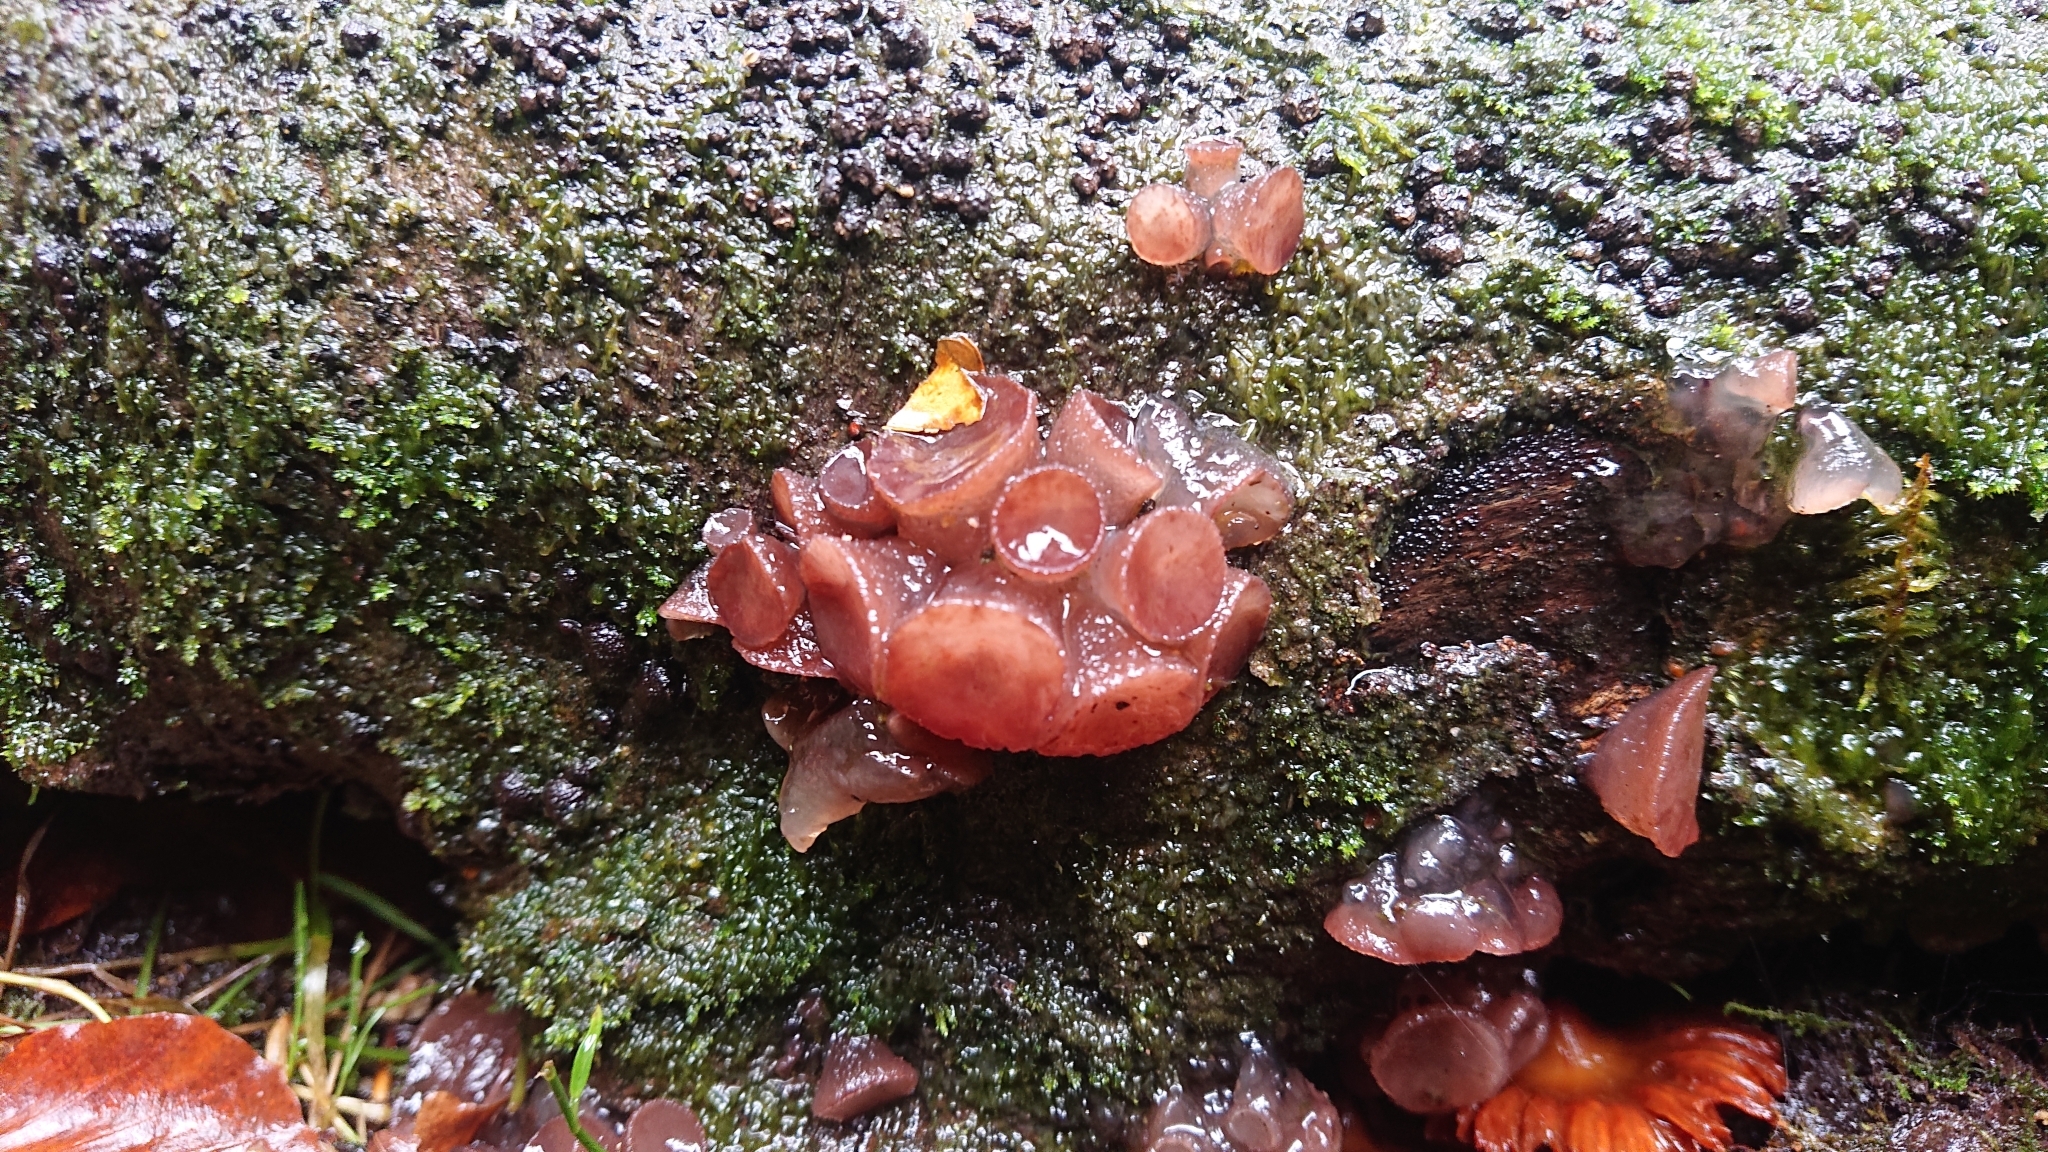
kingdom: Fungi
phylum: Ascomycota
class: Leotiomycetes
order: Helotiales
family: Gelatinodiscaceae
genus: Neobulgaria
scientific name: Neobulgaria pura
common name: Beech jelly-disc
